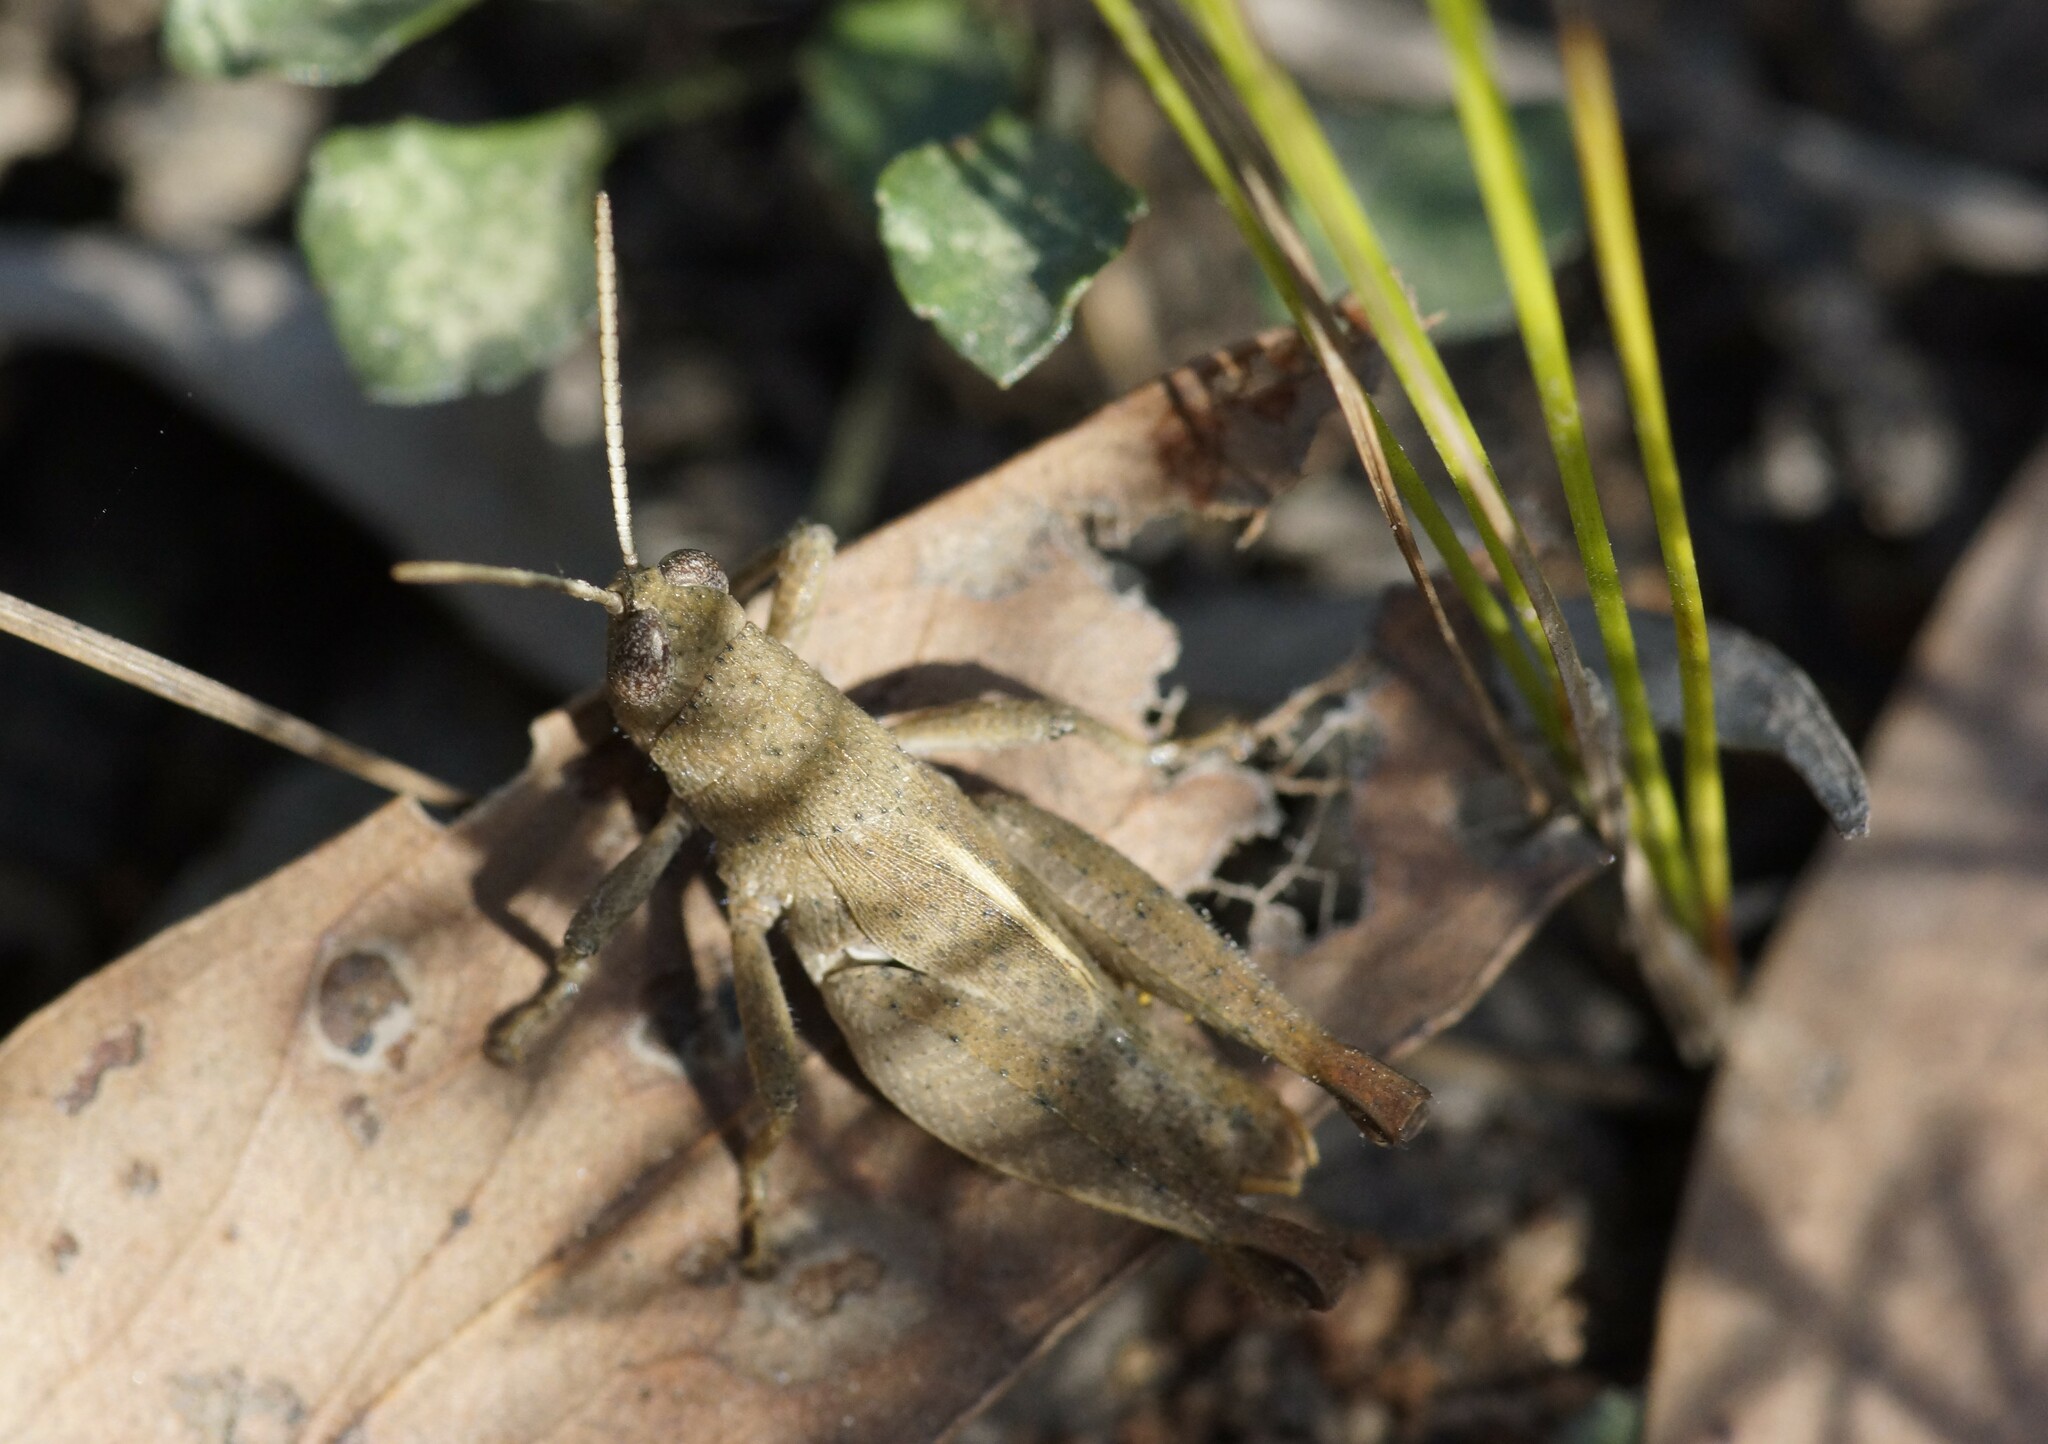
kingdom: Animalia
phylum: Arthropoda
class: Insecta
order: Orthoptera
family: Acrididae
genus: Rhitzala
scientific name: Rhitzala modesta
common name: Short-winged heath grasshopper
